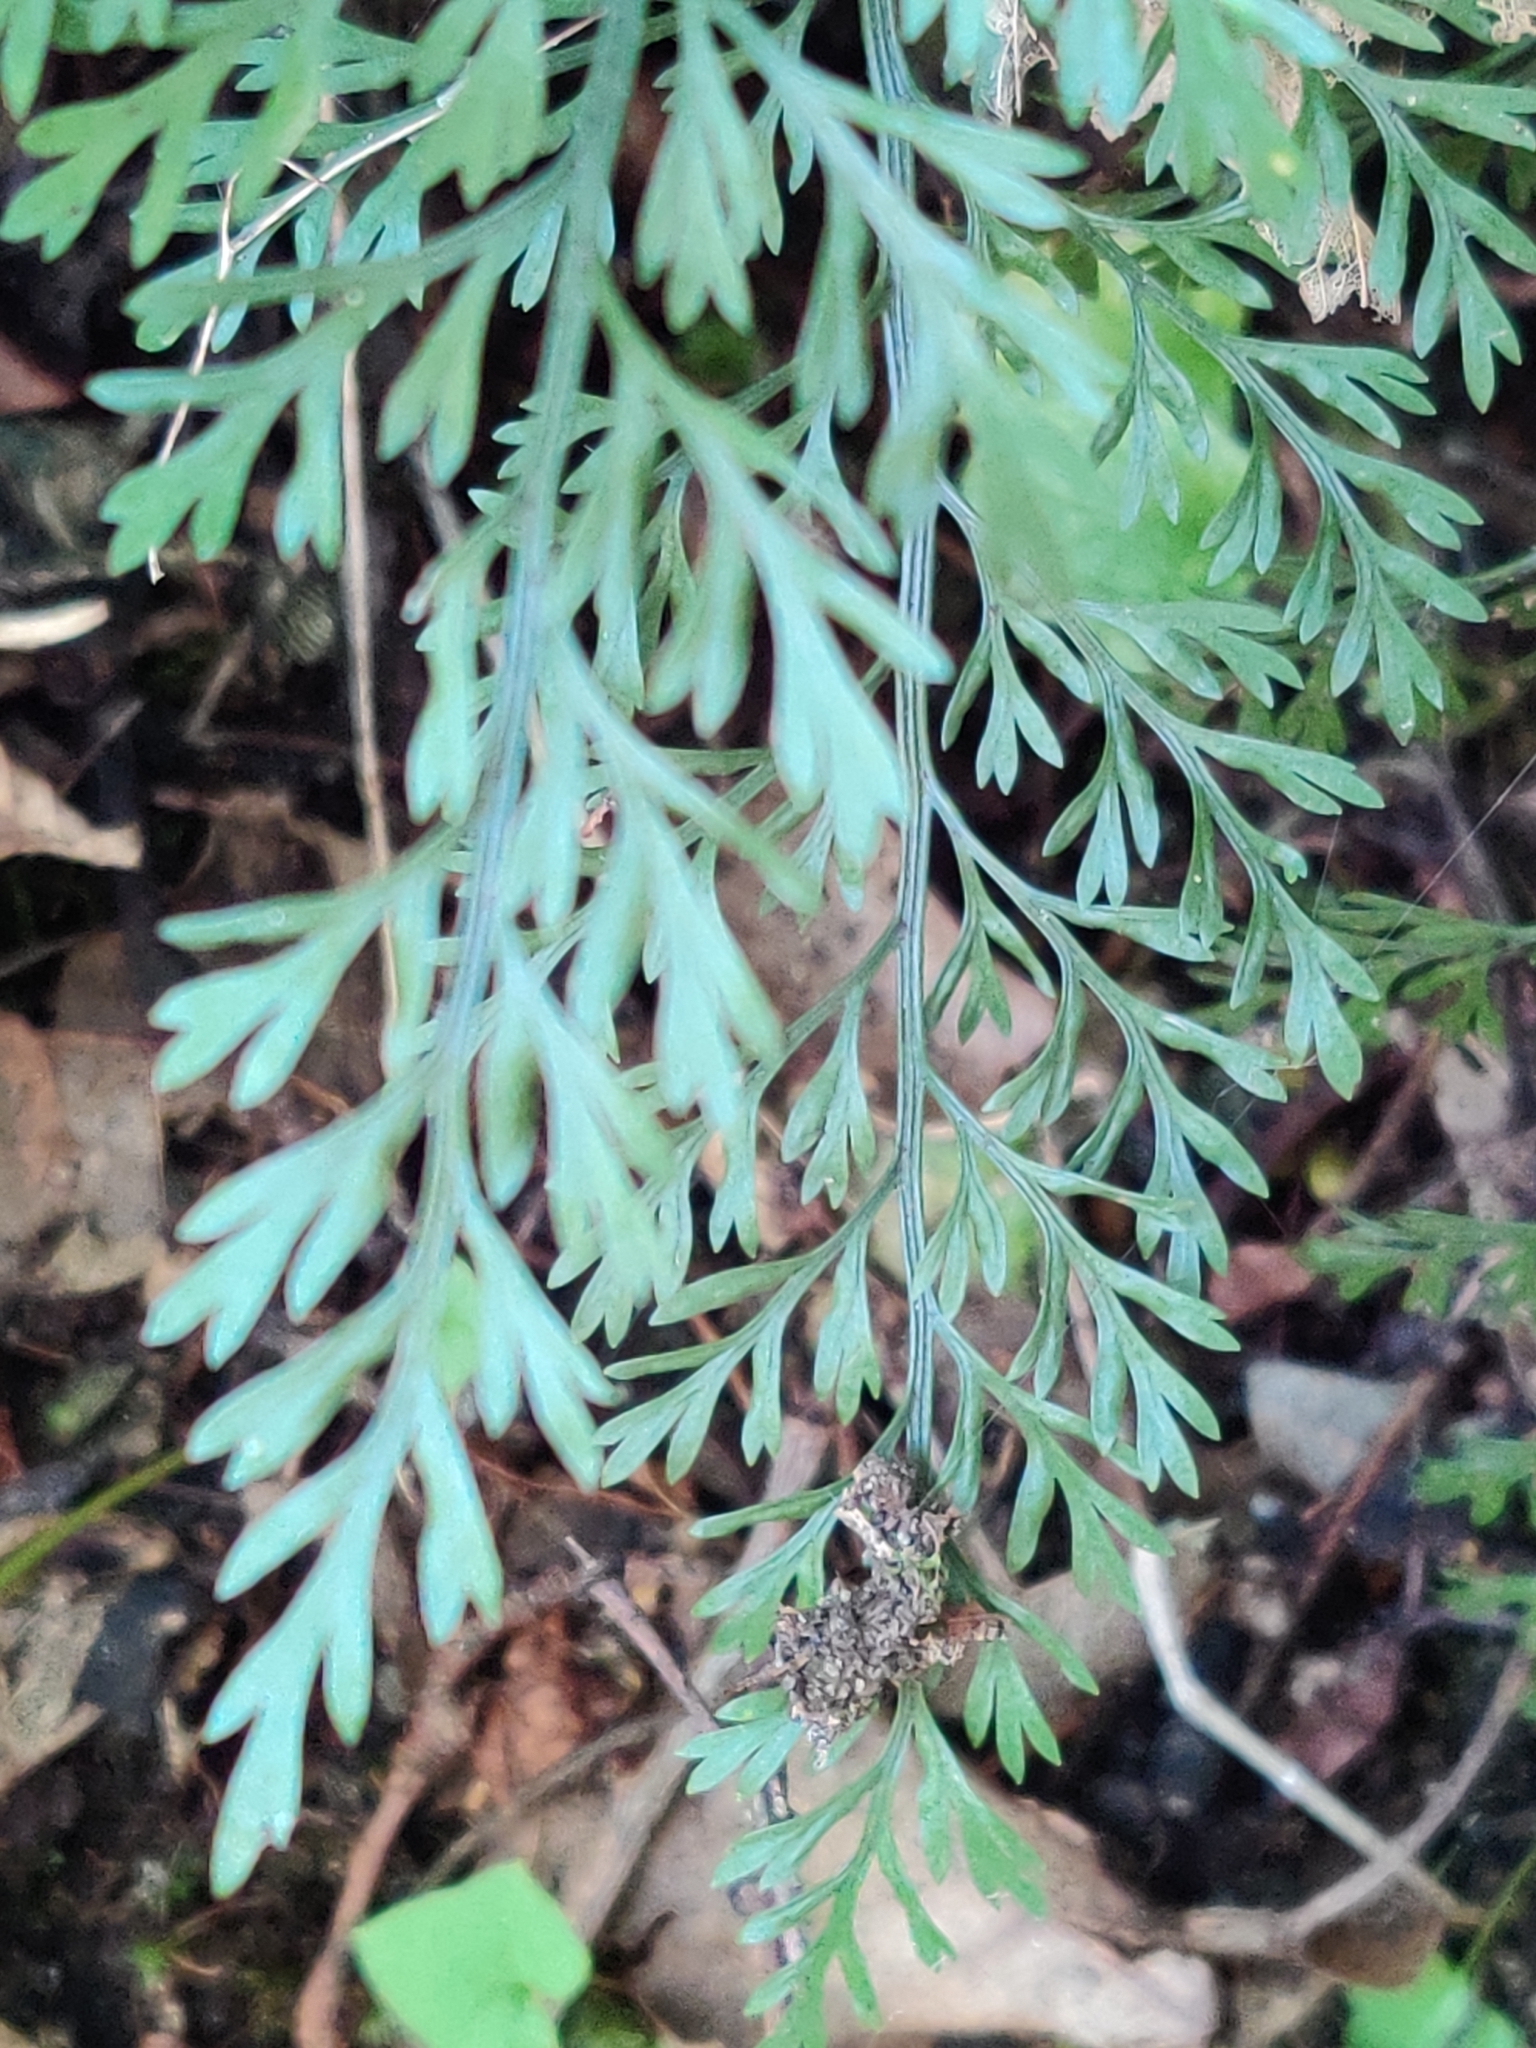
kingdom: Plantae
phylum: Tracheophyta
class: Polypodiopsida
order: Polypodiales
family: Aspleniaceae
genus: Asplenium
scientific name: Asplenium richardii
